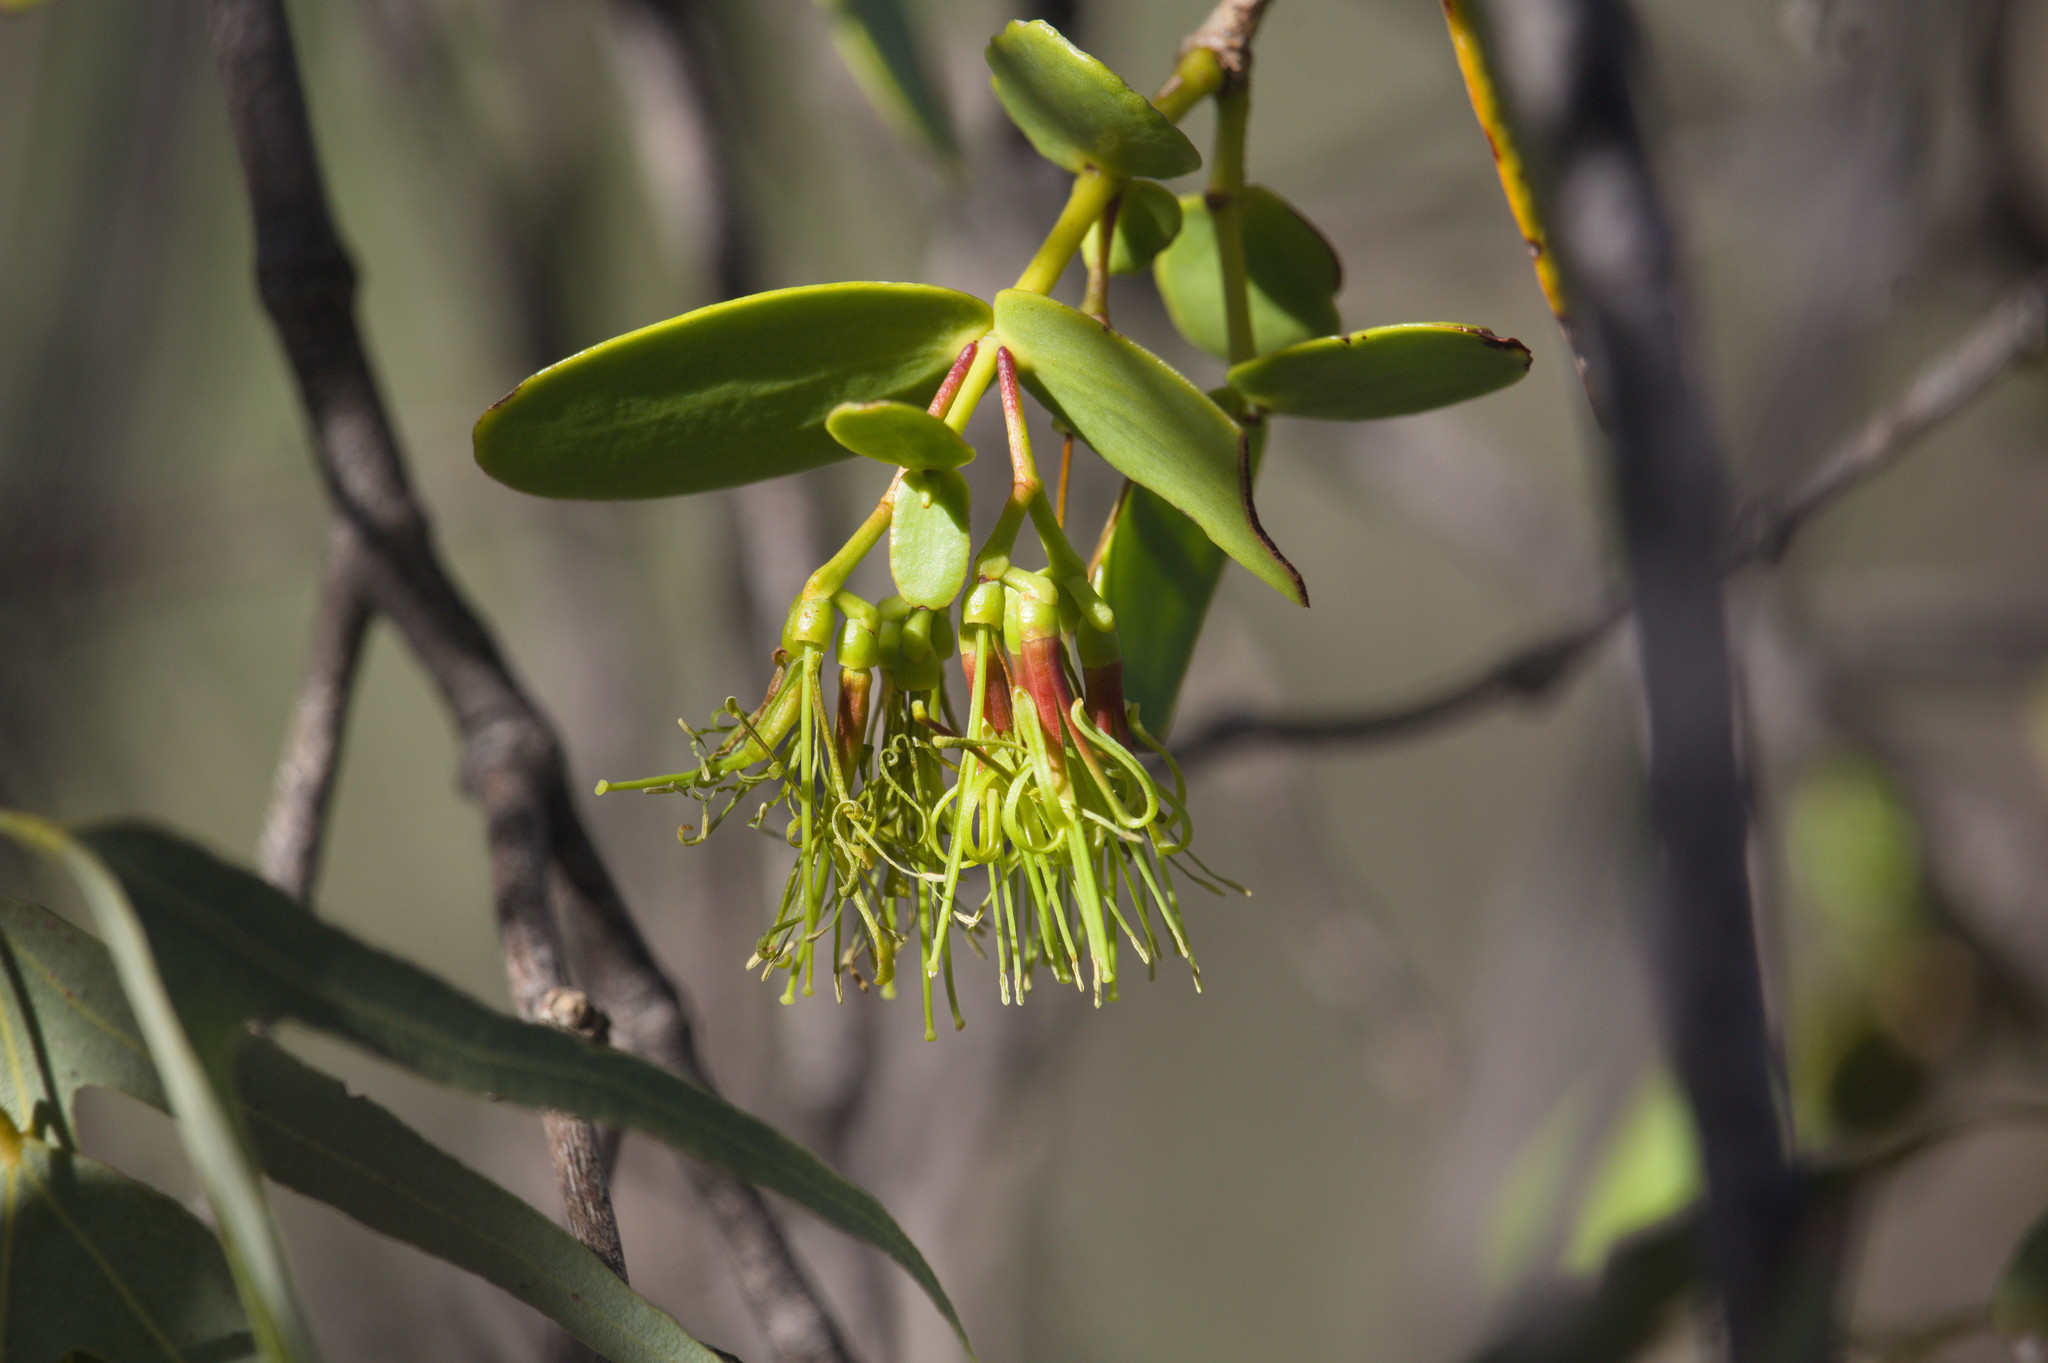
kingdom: Plantae
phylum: Tracheophyta
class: Magnoliopsida
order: Santalales
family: Loranthaceae
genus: Amyema
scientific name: Amyema benthamii
